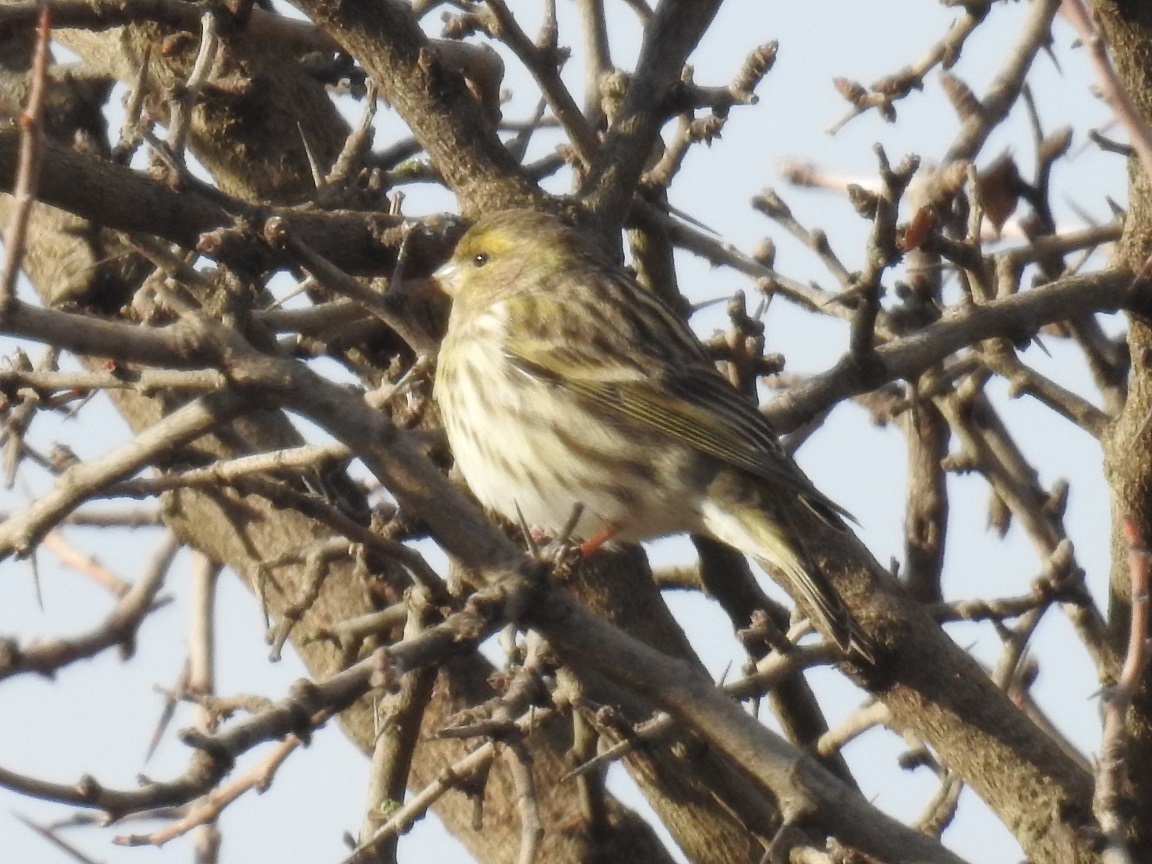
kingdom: Animalia
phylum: Chordata
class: Aves
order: Passeriformes
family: Fringillidae
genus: Serinus
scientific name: Serinus serinus
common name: European serin
